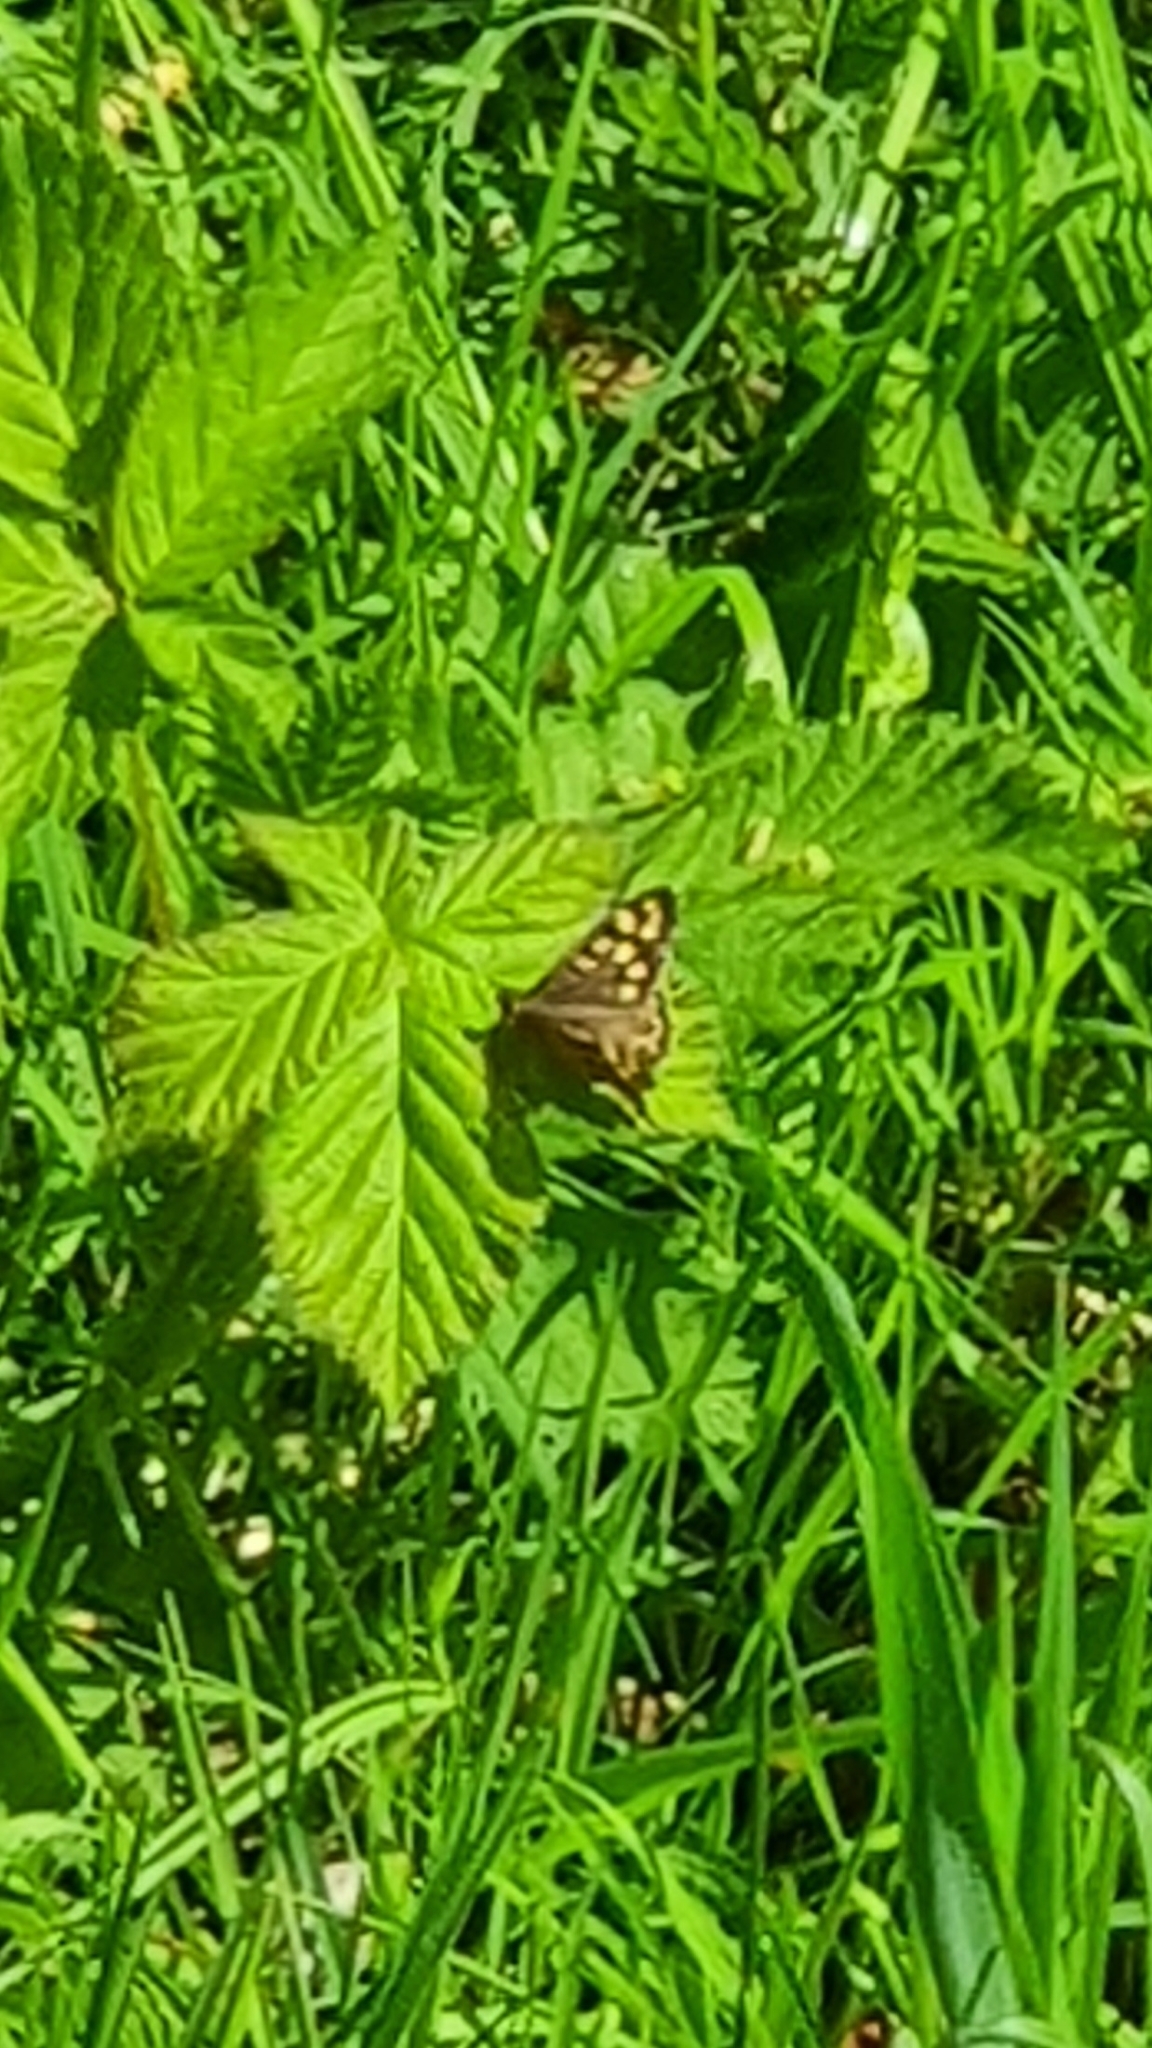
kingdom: Animalia
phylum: Arthropoda
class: Insecta
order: Lepidoptera
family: Nymphalidae
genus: Pararge
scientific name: Pararge aegeria
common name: Speckled wood
